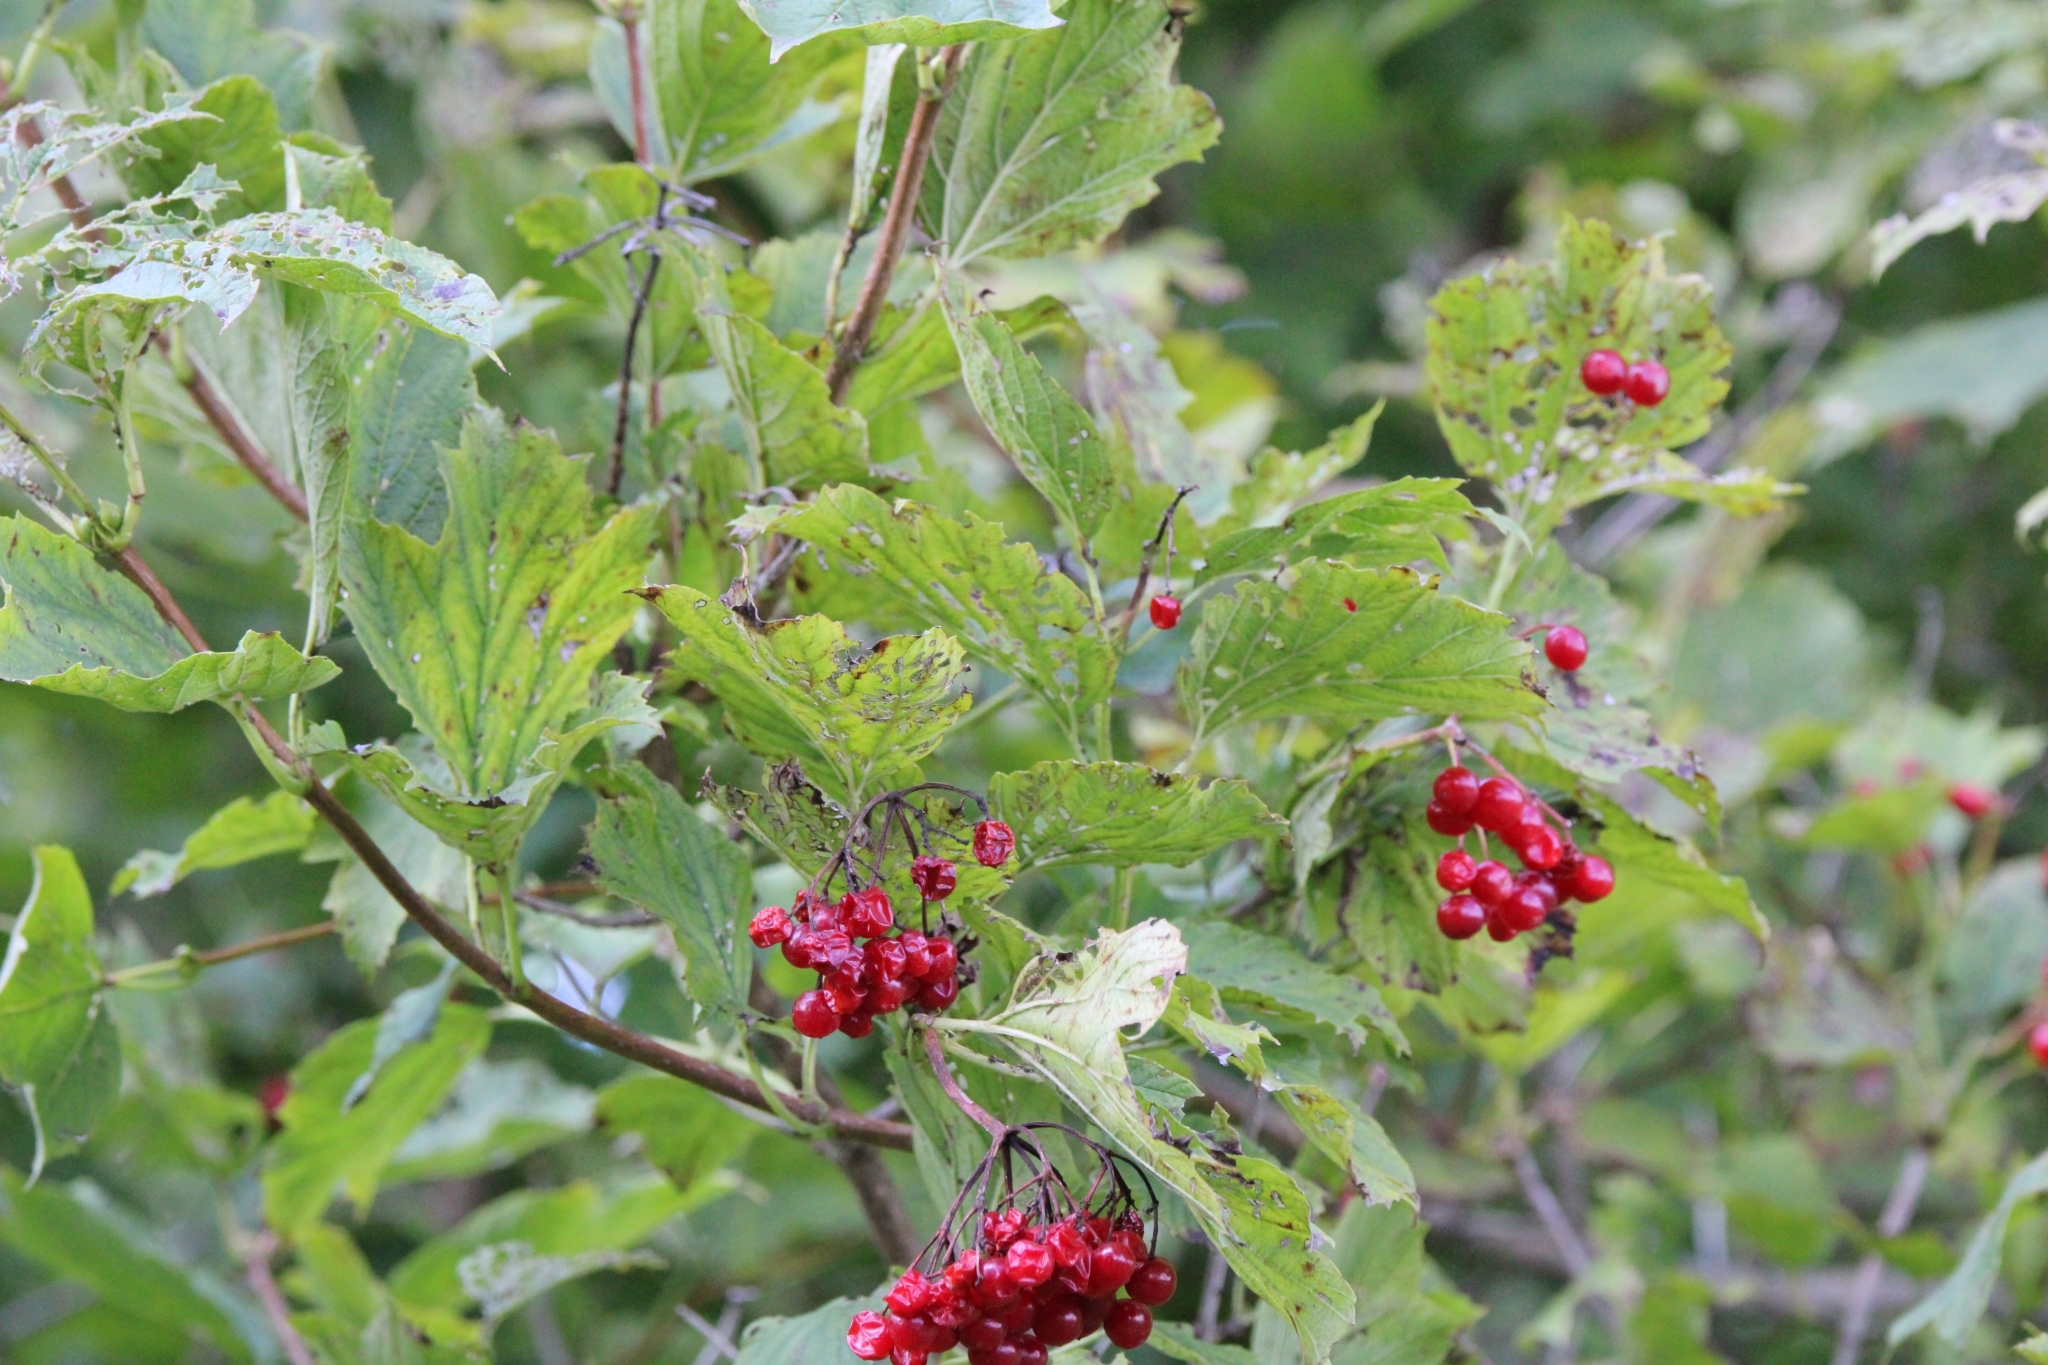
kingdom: Plantae
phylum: Tracheophyta
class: Magnoliopsida
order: Dipsacales
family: Viburnaceae
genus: Viburnum
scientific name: Viburnum opulus
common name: Guelder-rose
